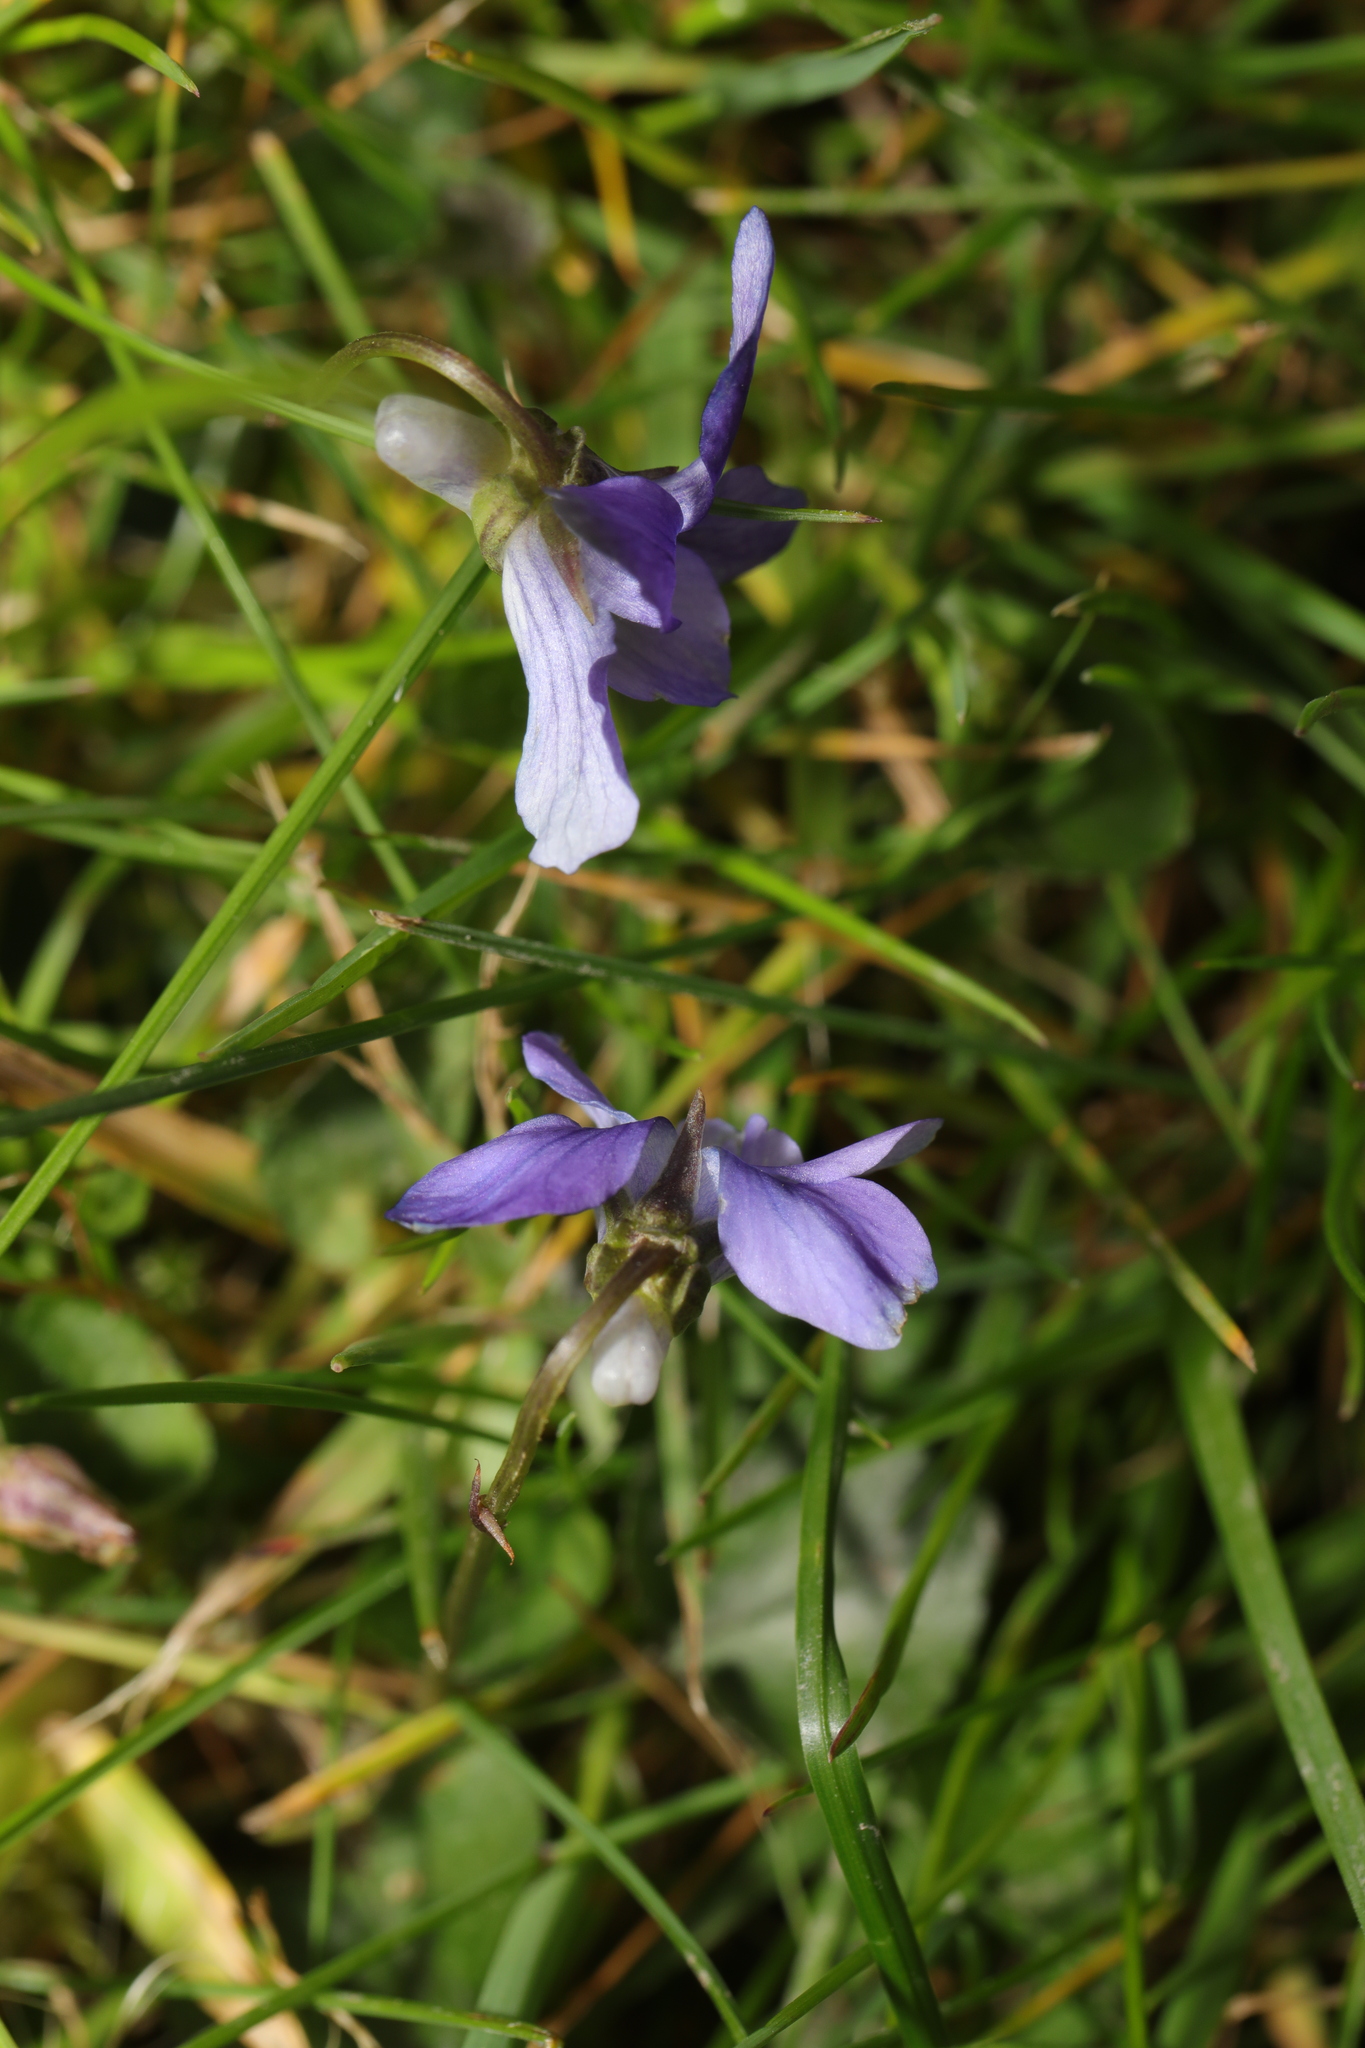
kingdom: Plantae
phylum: Tracheophyta
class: Magnoliopsida
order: Malpighiales
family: Violaceae
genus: Viola
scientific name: Viola riviniana
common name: Common dog-violet
